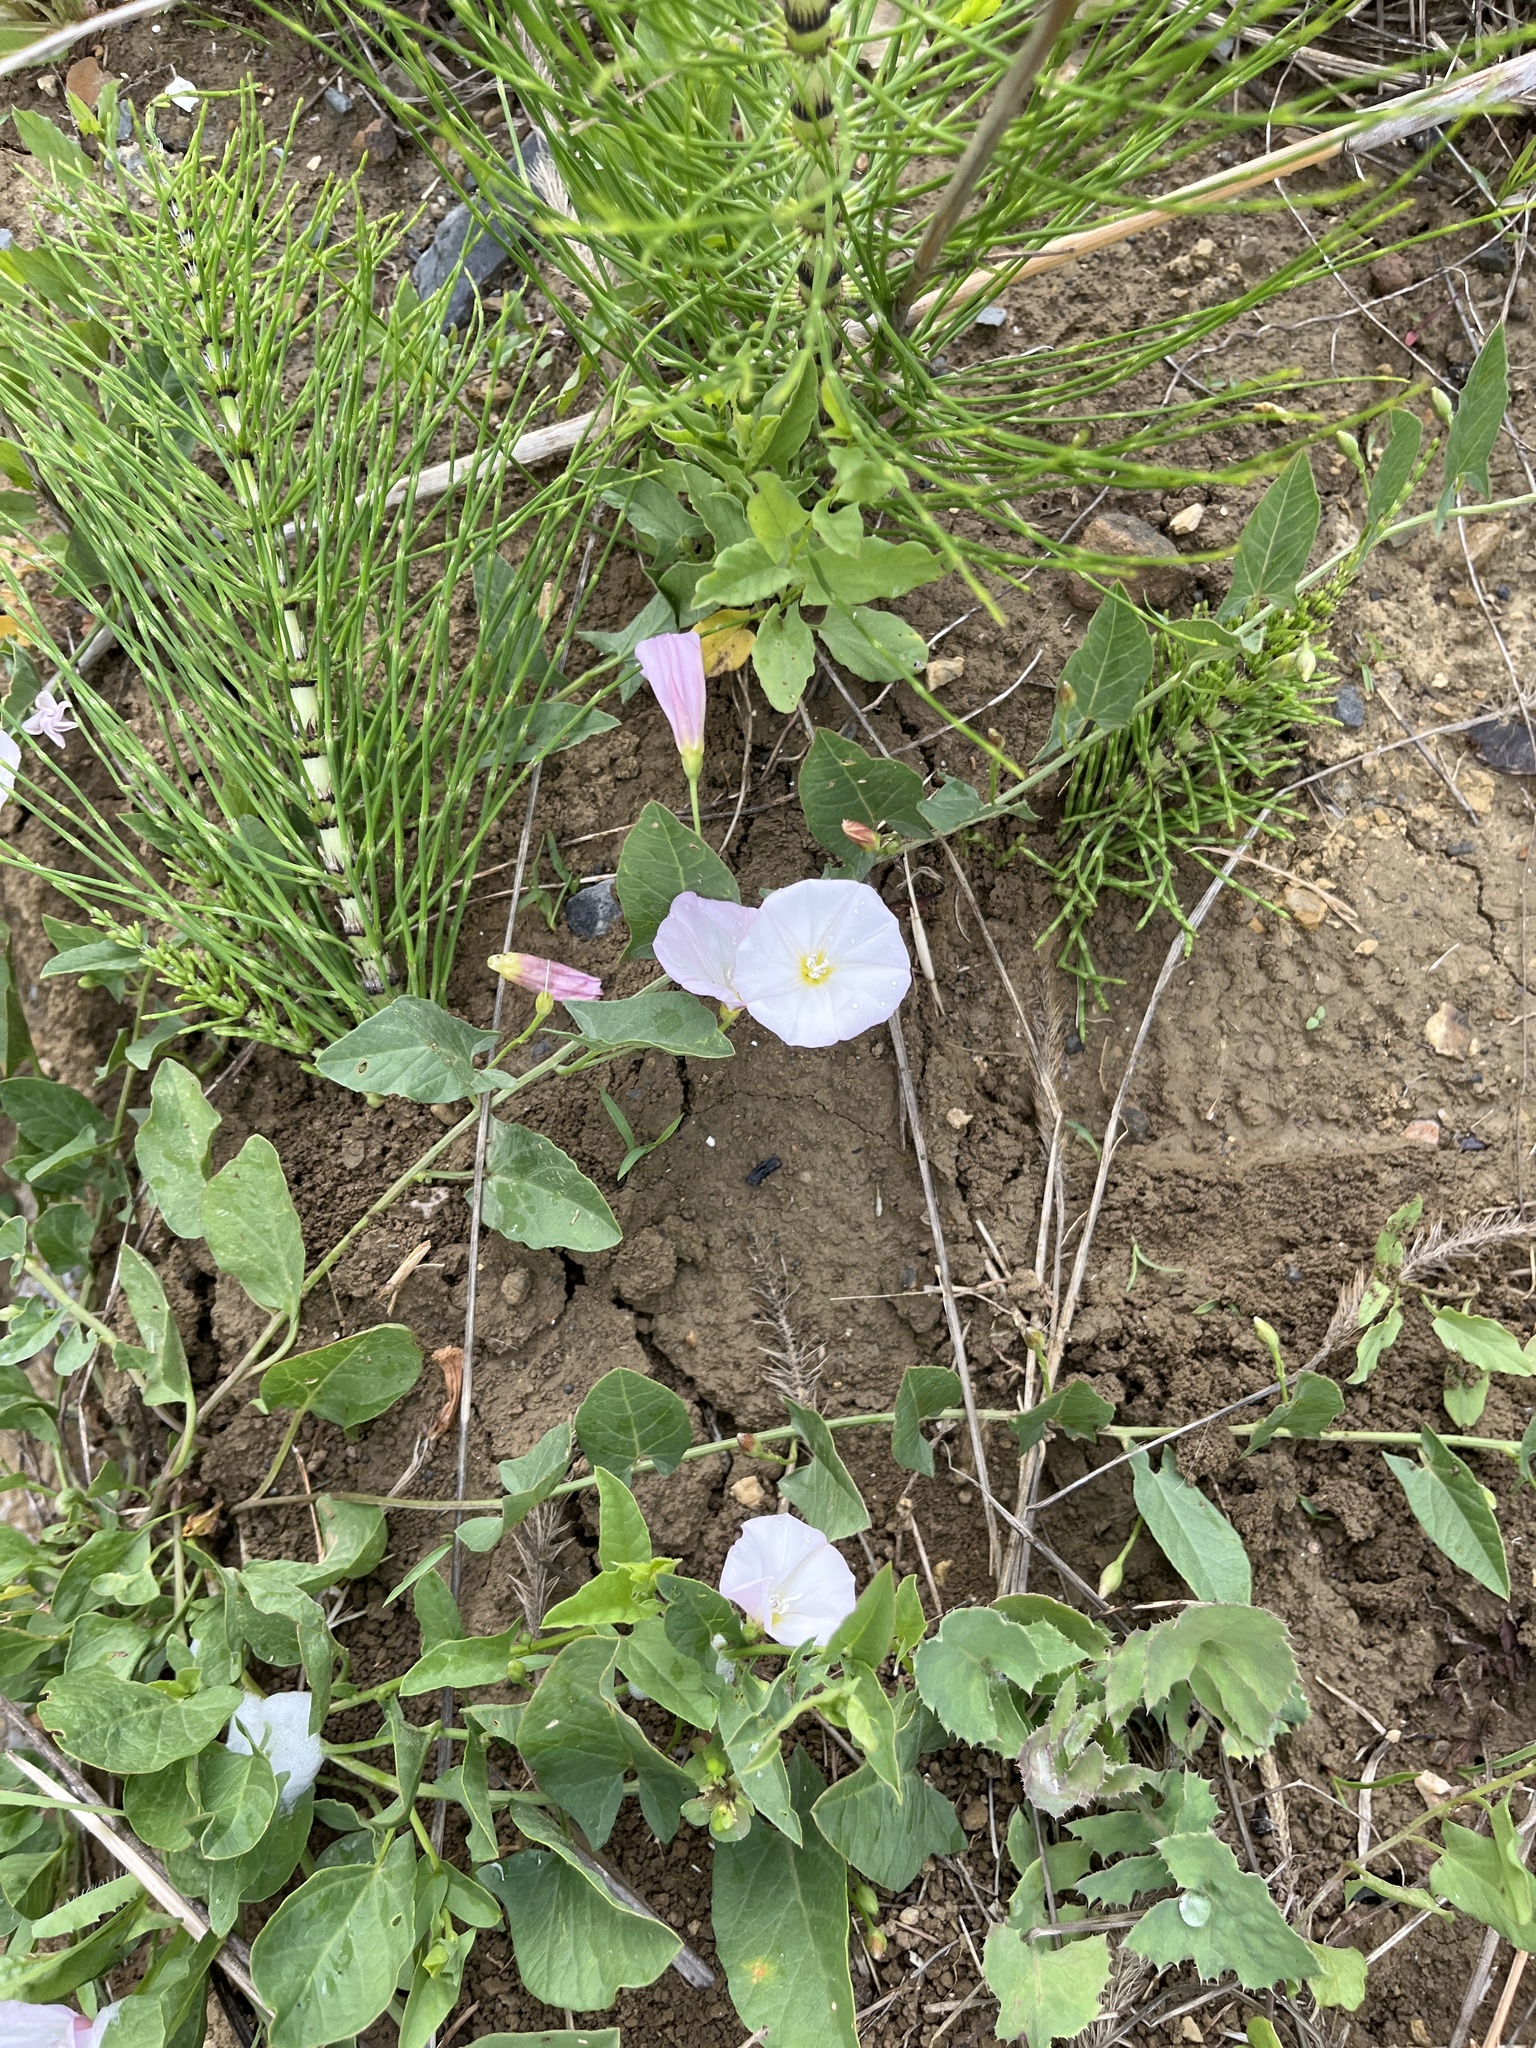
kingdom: Plantae
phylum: Tracheophyta
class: Magnoliopsida
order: Solanales
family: Convolvulaceae
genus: Convolvulus
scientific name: Convolvulus arvensis
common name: Field bindweed
